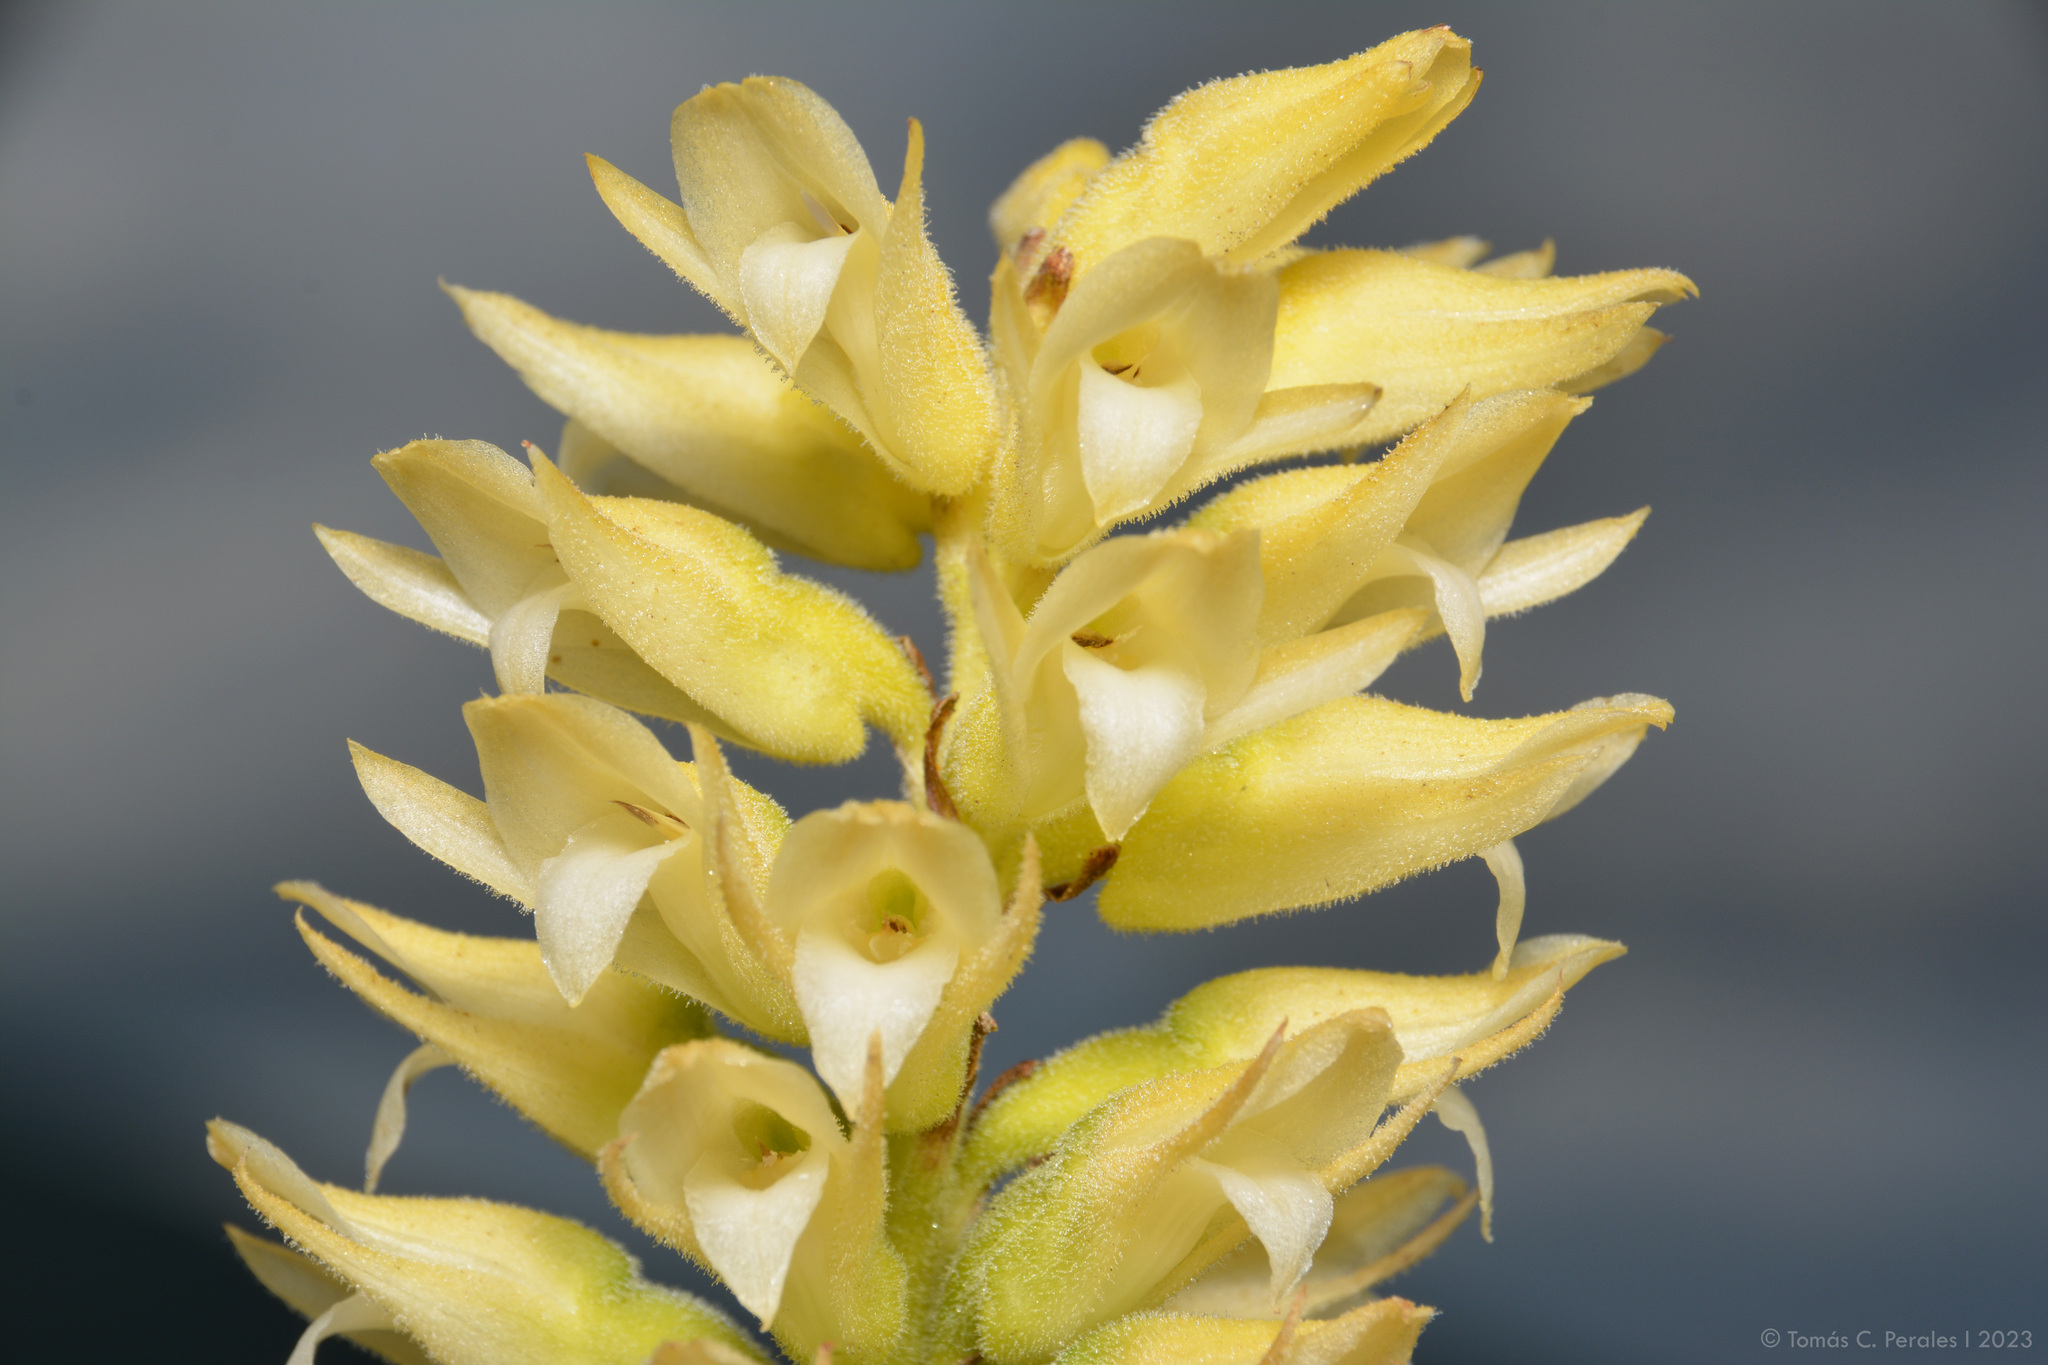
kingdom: Plantae
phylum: Tracheophyta
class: Liliopsida
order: Asparagales
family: Orchidaceae
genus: Sacoila
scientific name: Sacoila lanceolata
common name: Leafless beaked ladiestresses
